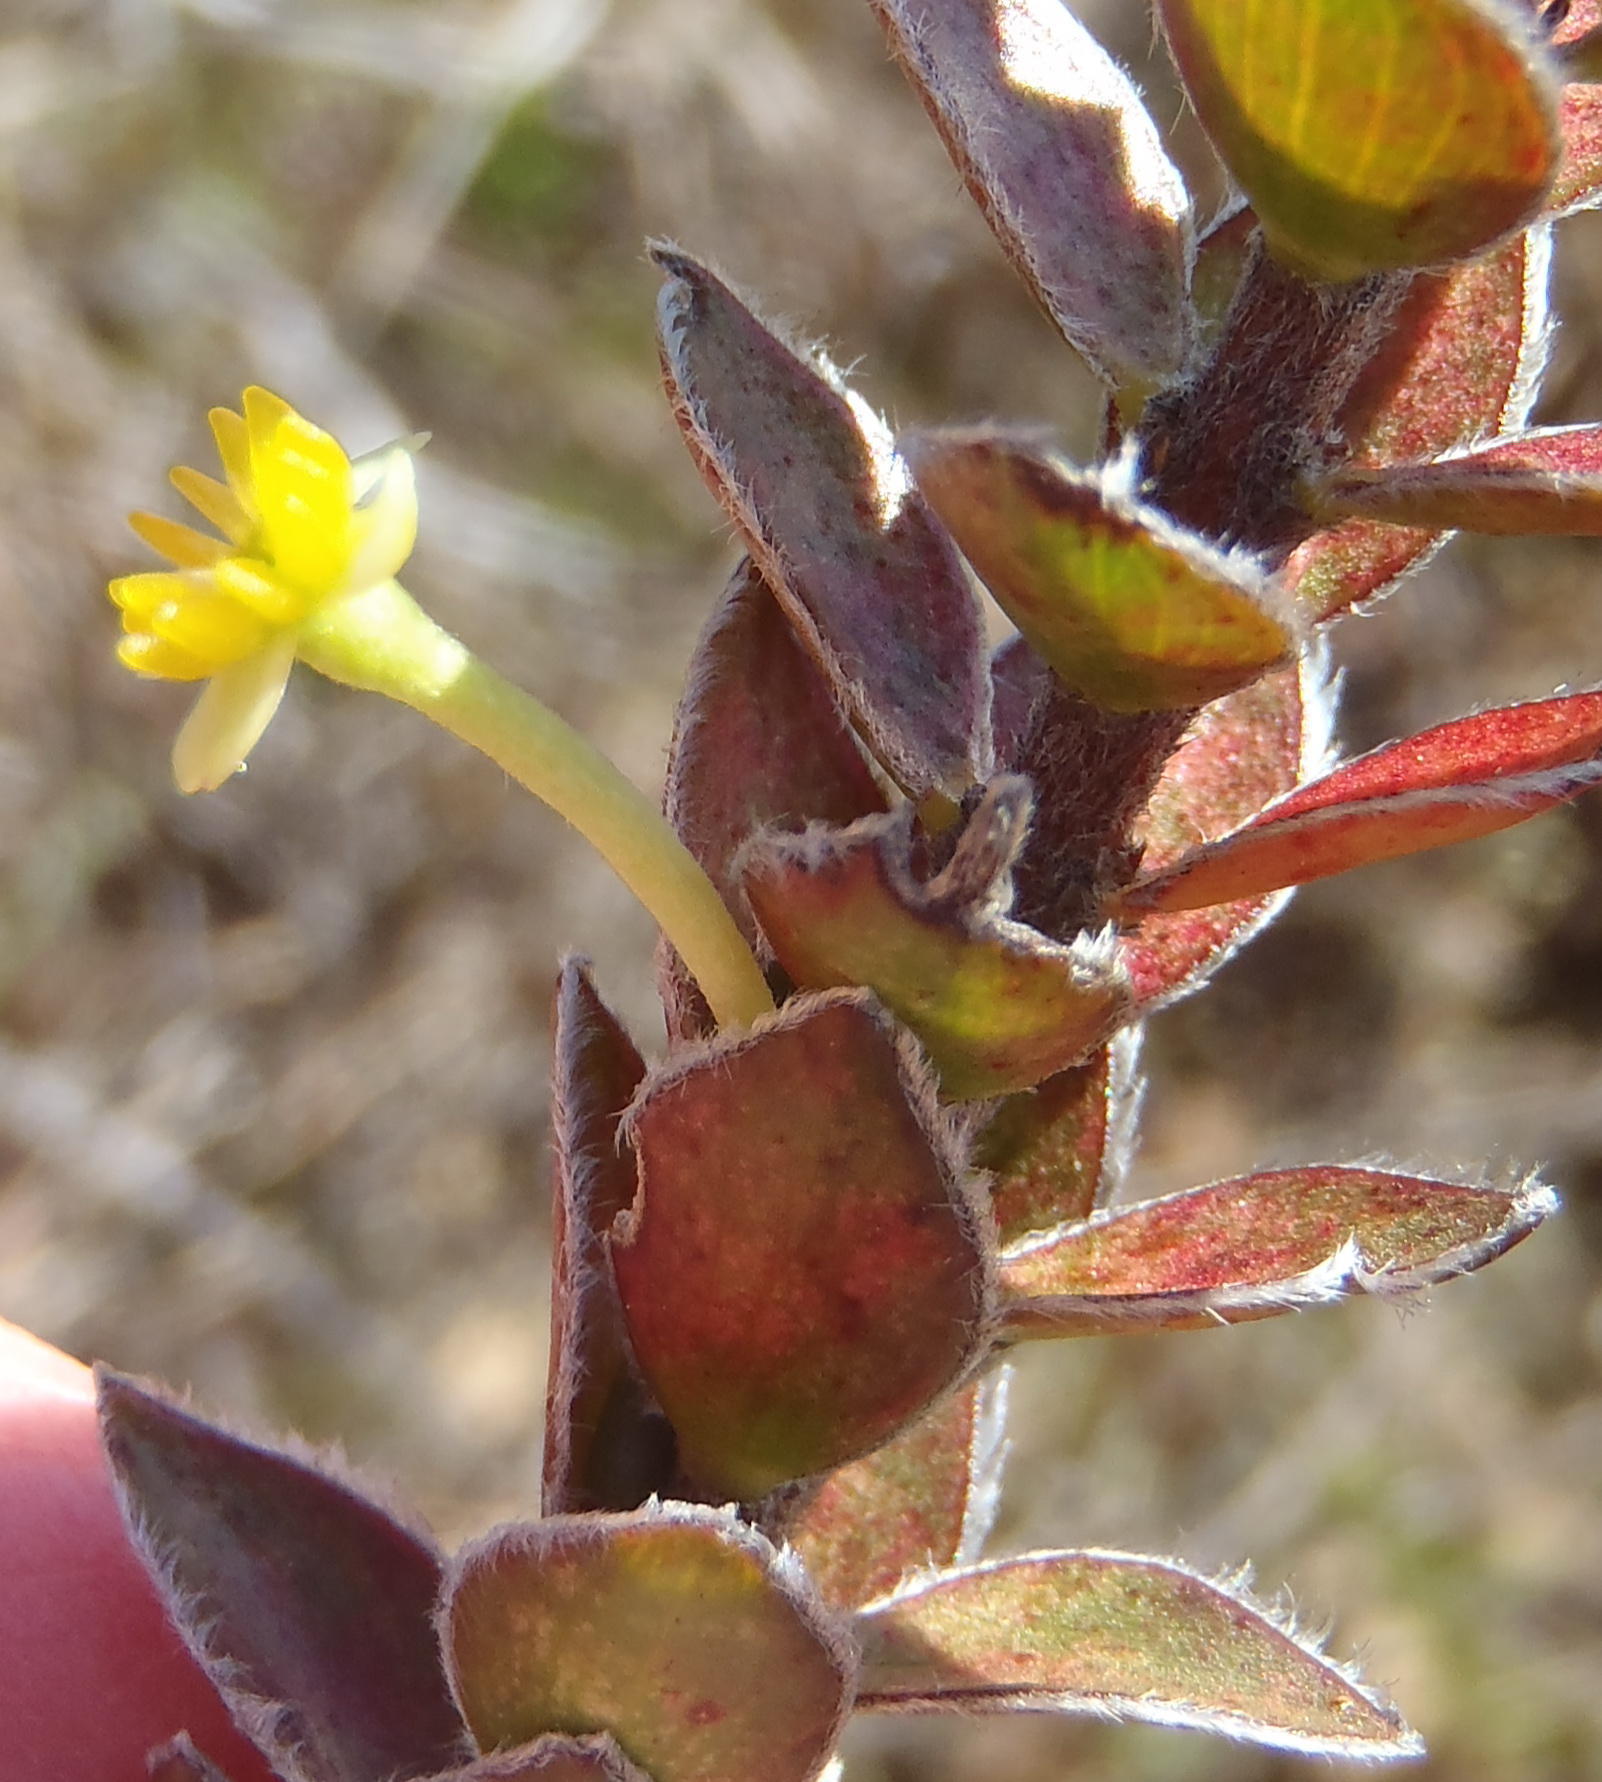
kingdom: Plantae
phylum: Tracheophyta
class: Magnoliopsida
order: Malvales
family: Thymelaeaceae
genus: Struthiola
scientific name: Struthiola argentea
